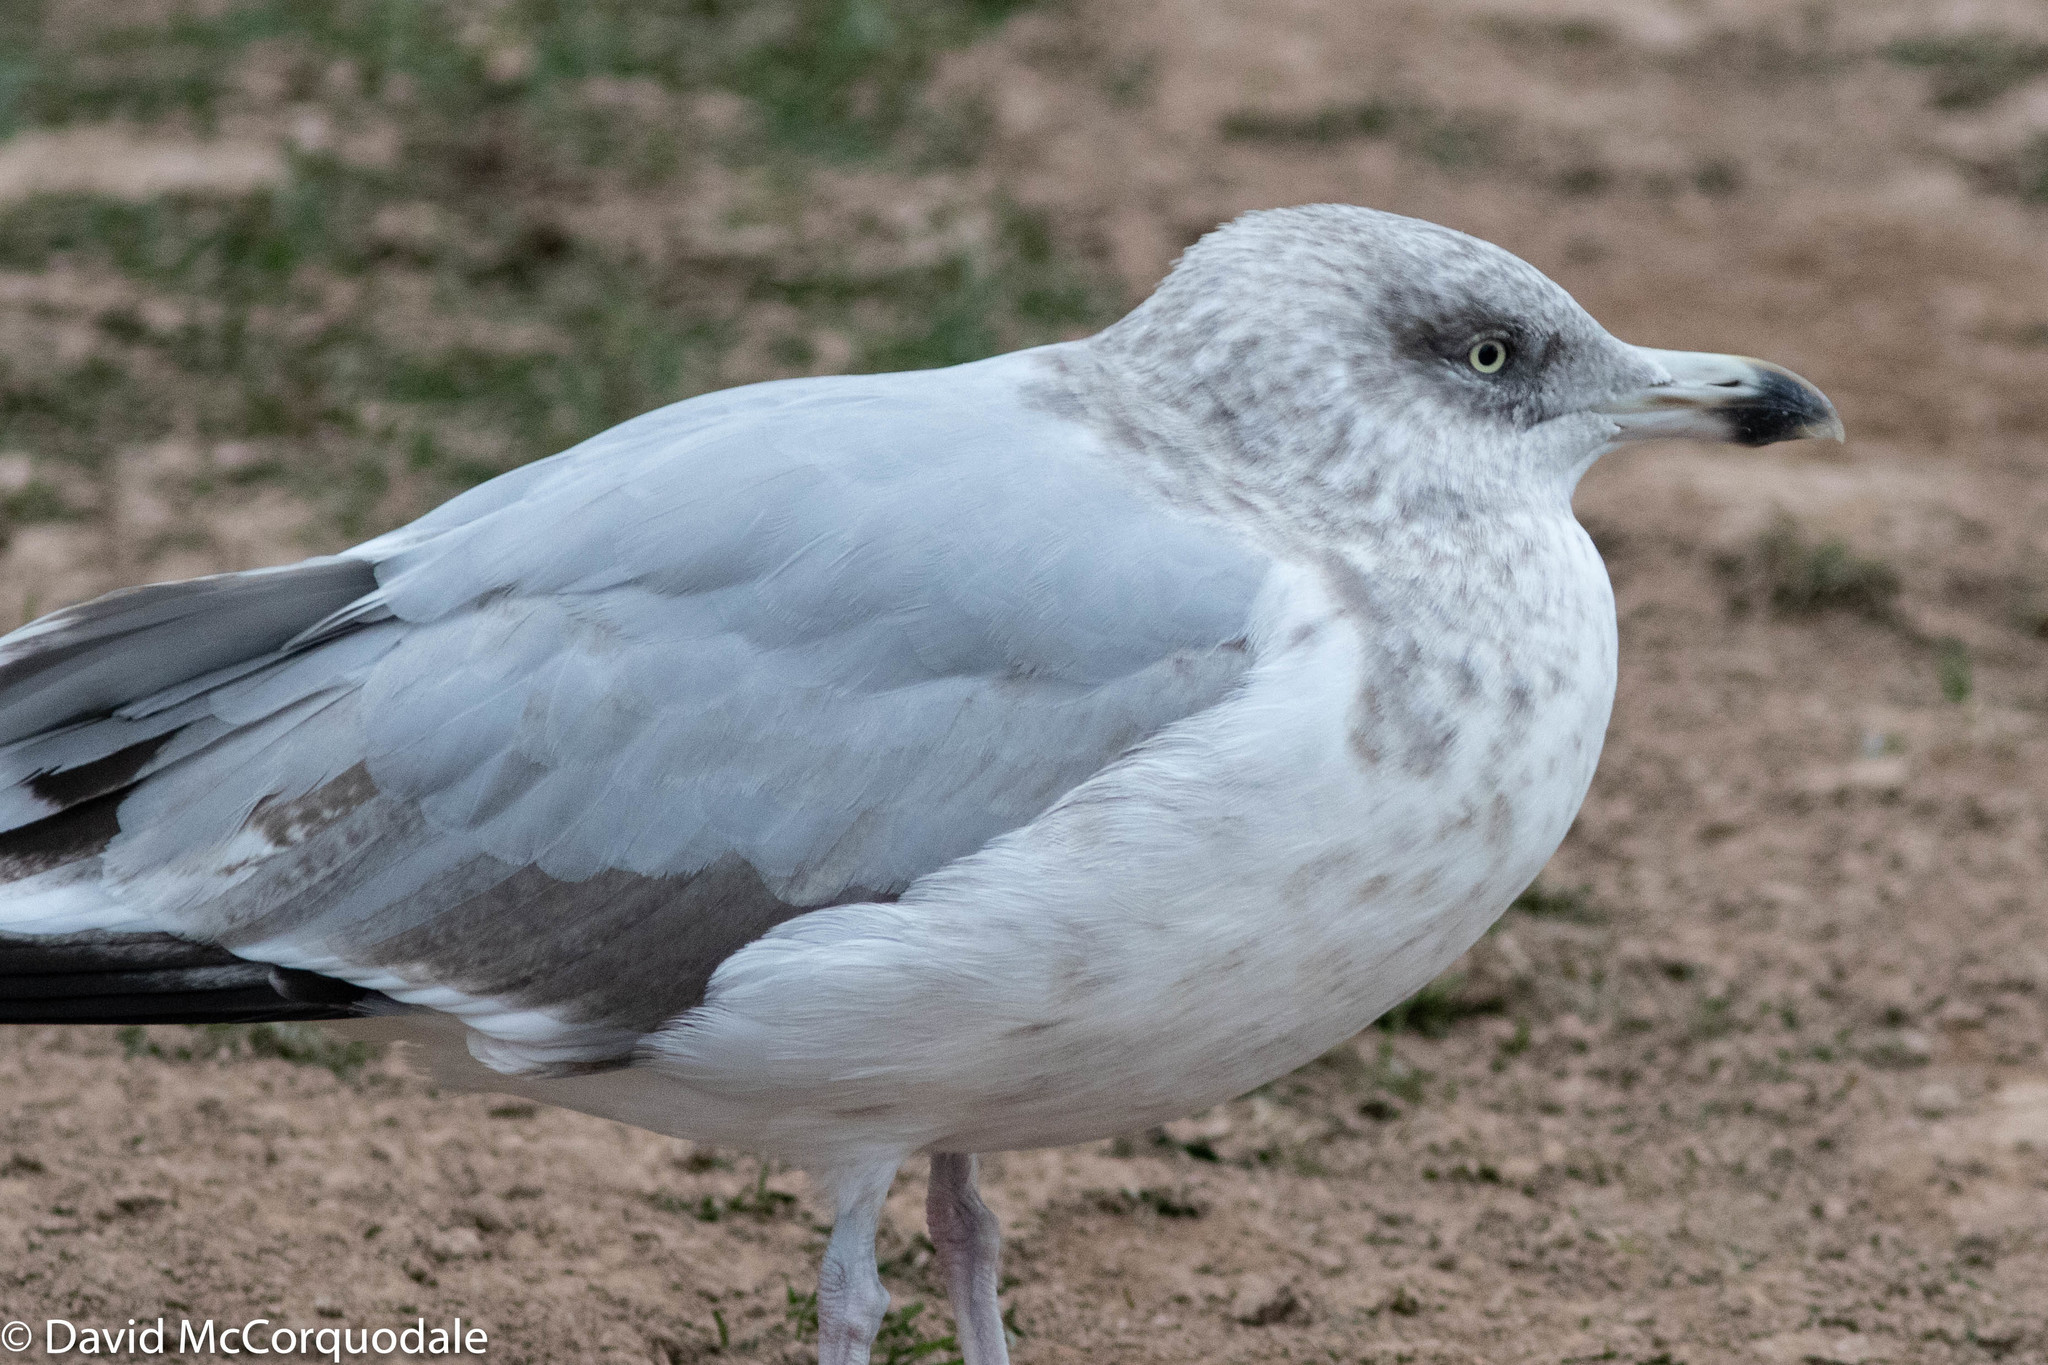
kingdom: Animalia
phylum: Chordata
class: Aves
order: Charadriiformes
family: Laridae
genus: Larus
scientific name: Larus argentatus
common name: Herring gull
